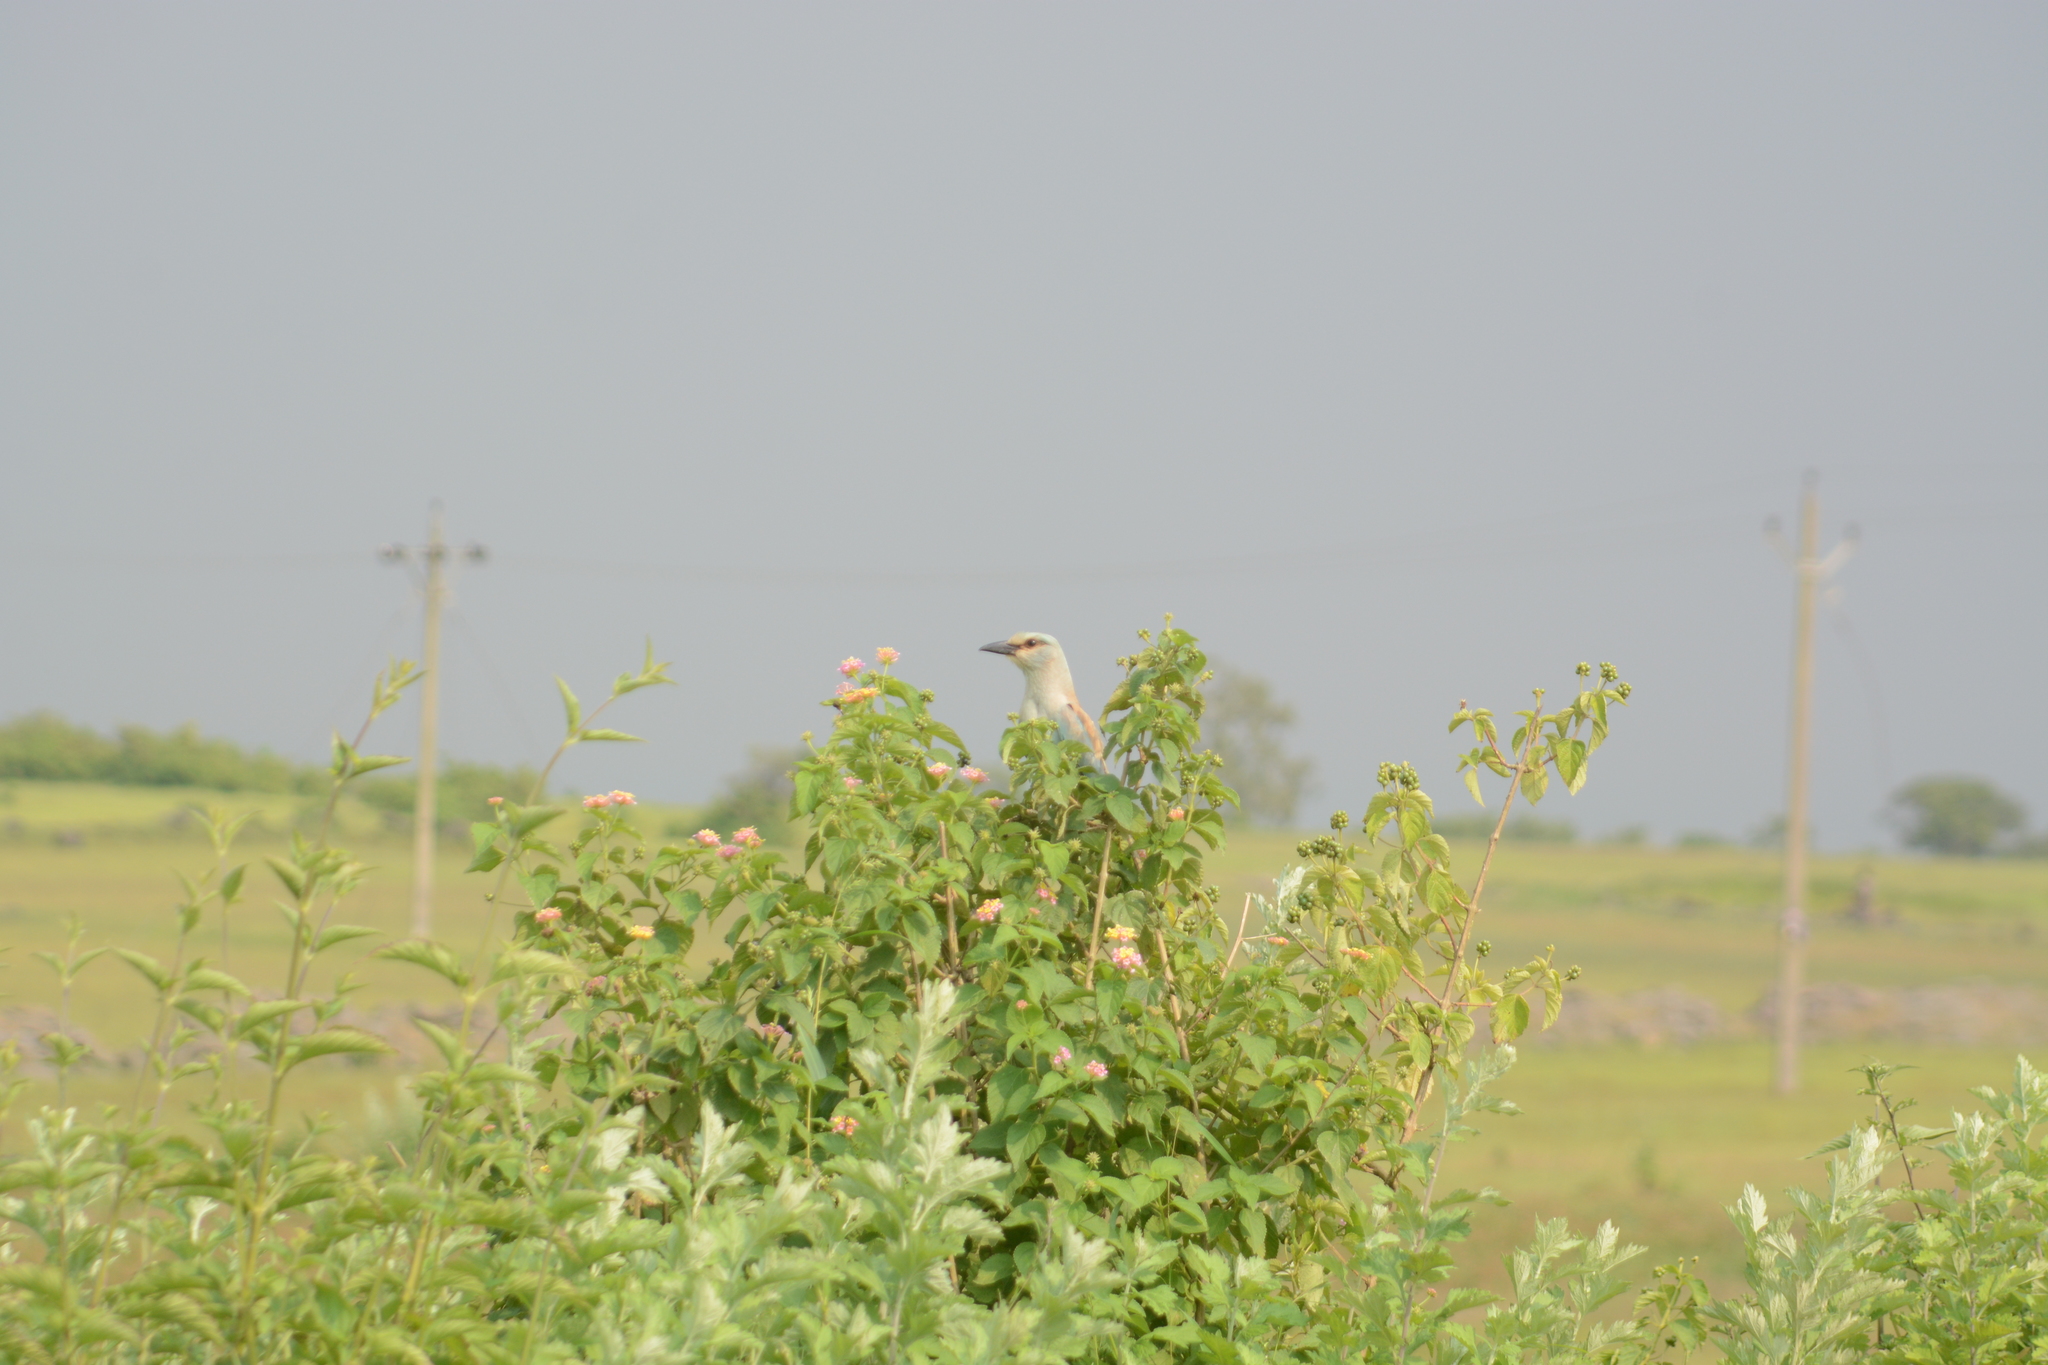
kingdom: Animalia
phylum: Chordata
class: Aves
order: Coraciiformes
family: Coraciidae
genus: Coracias
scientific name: Coracias garrulus
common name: European roller
